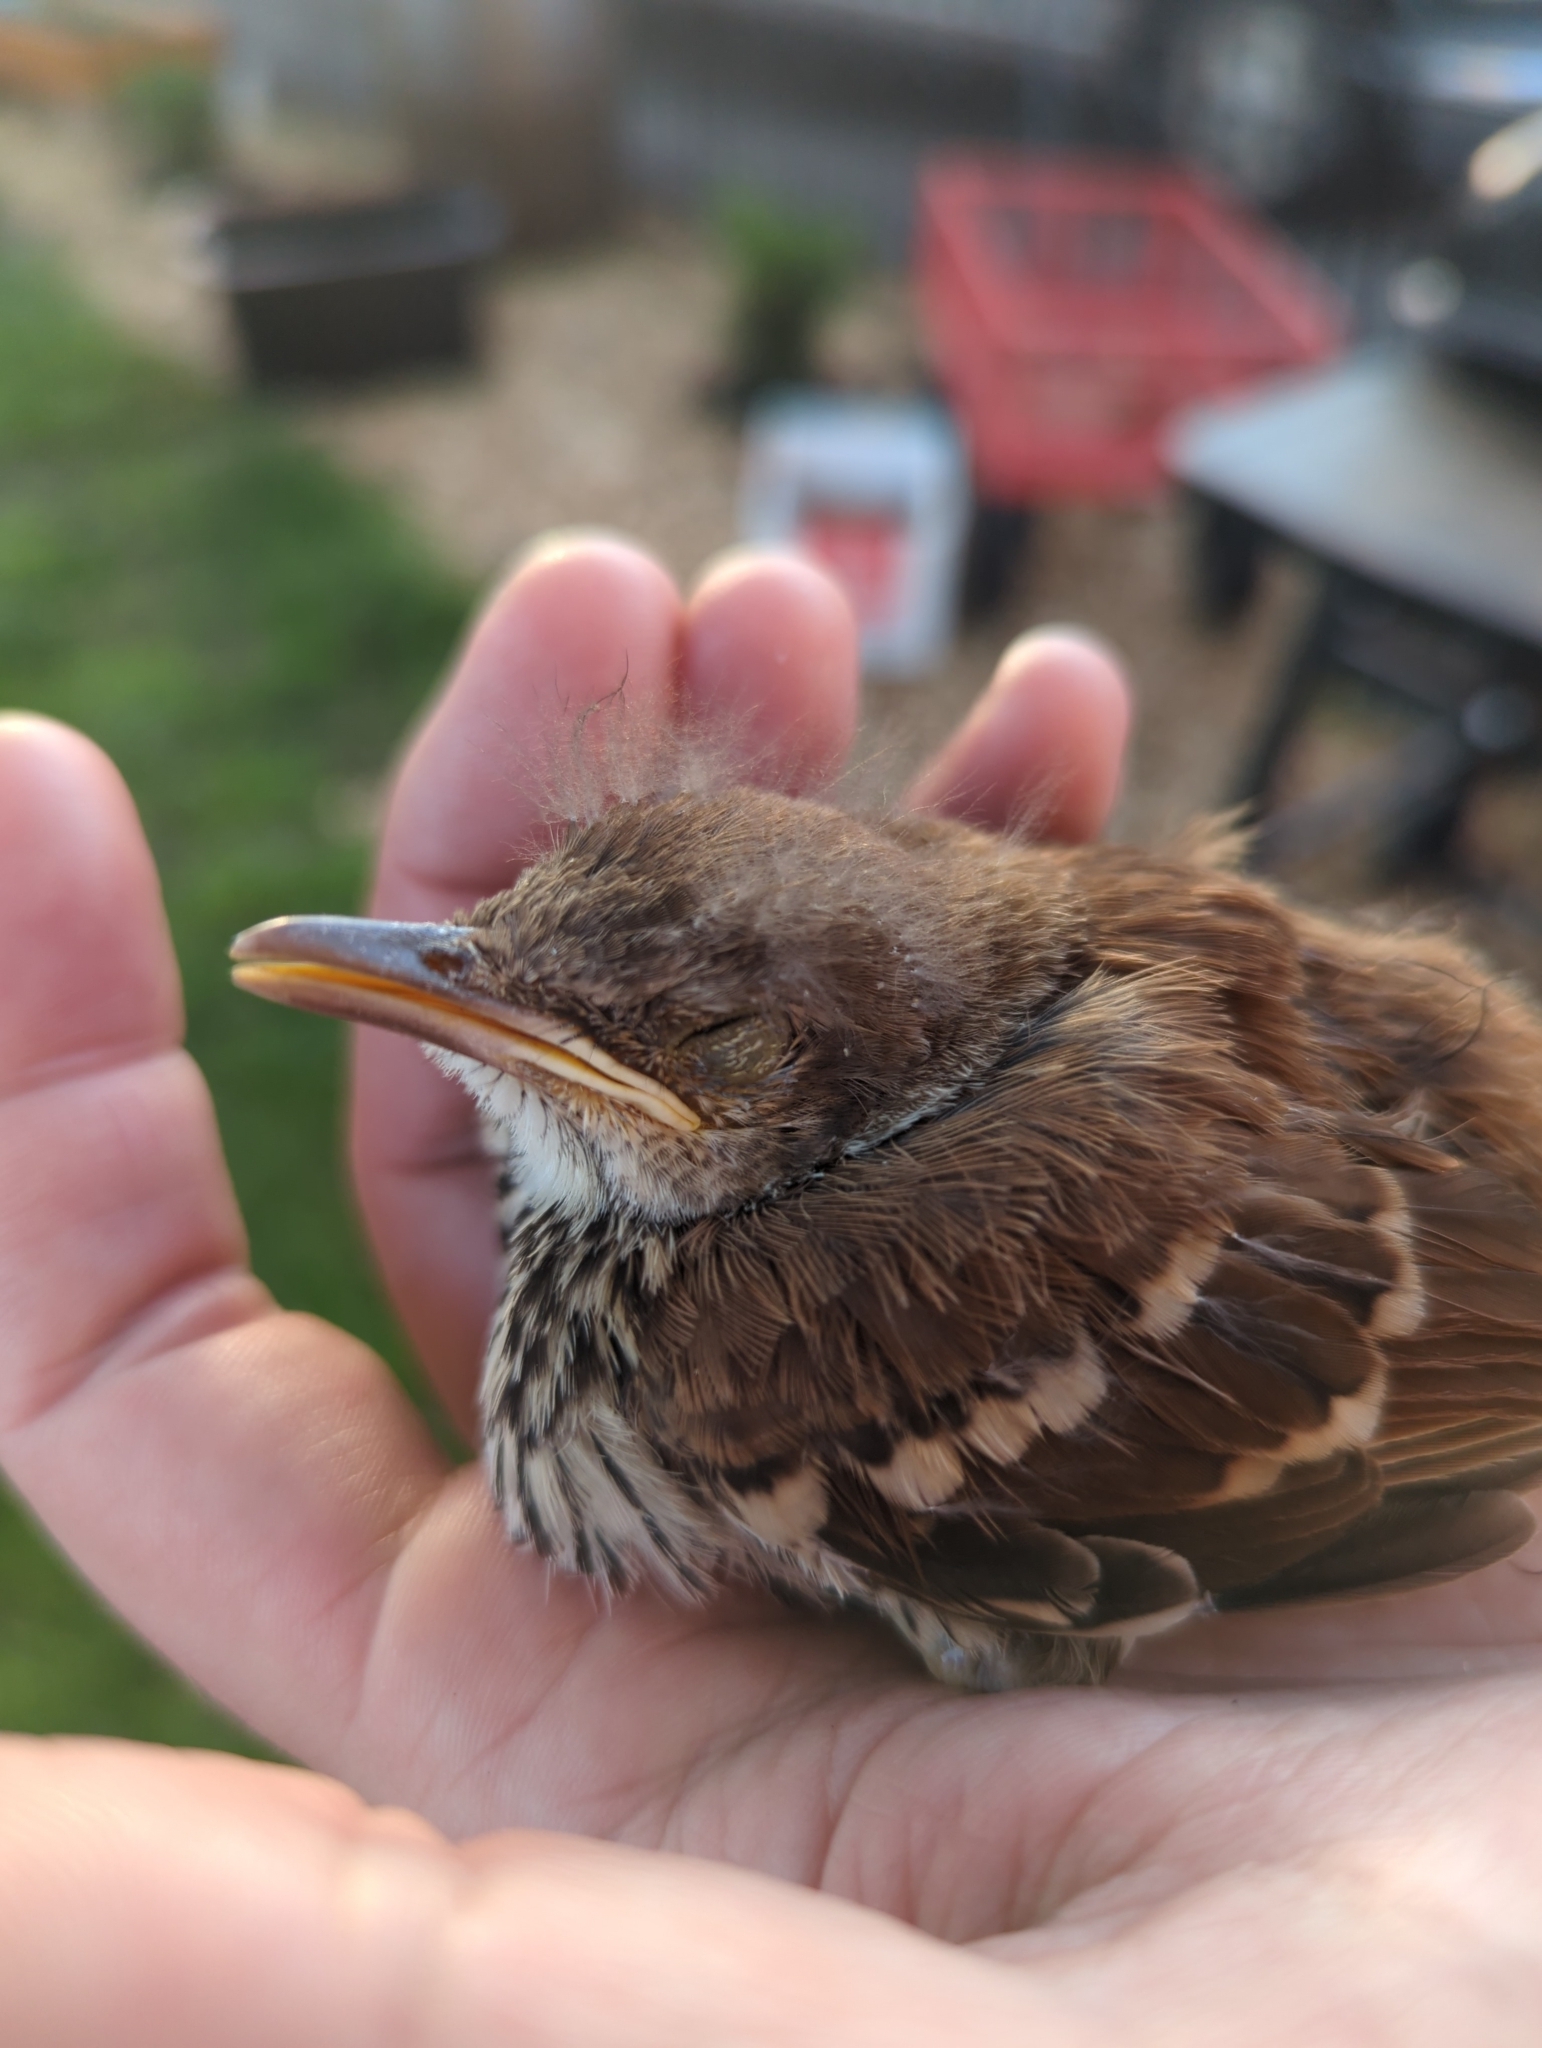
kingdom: Animalia
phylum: Chordata
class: Aves
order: Passeriformes
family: Mimidae
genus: Toxostoma
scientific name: Toxostoma rufum
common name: Brown thrasher
